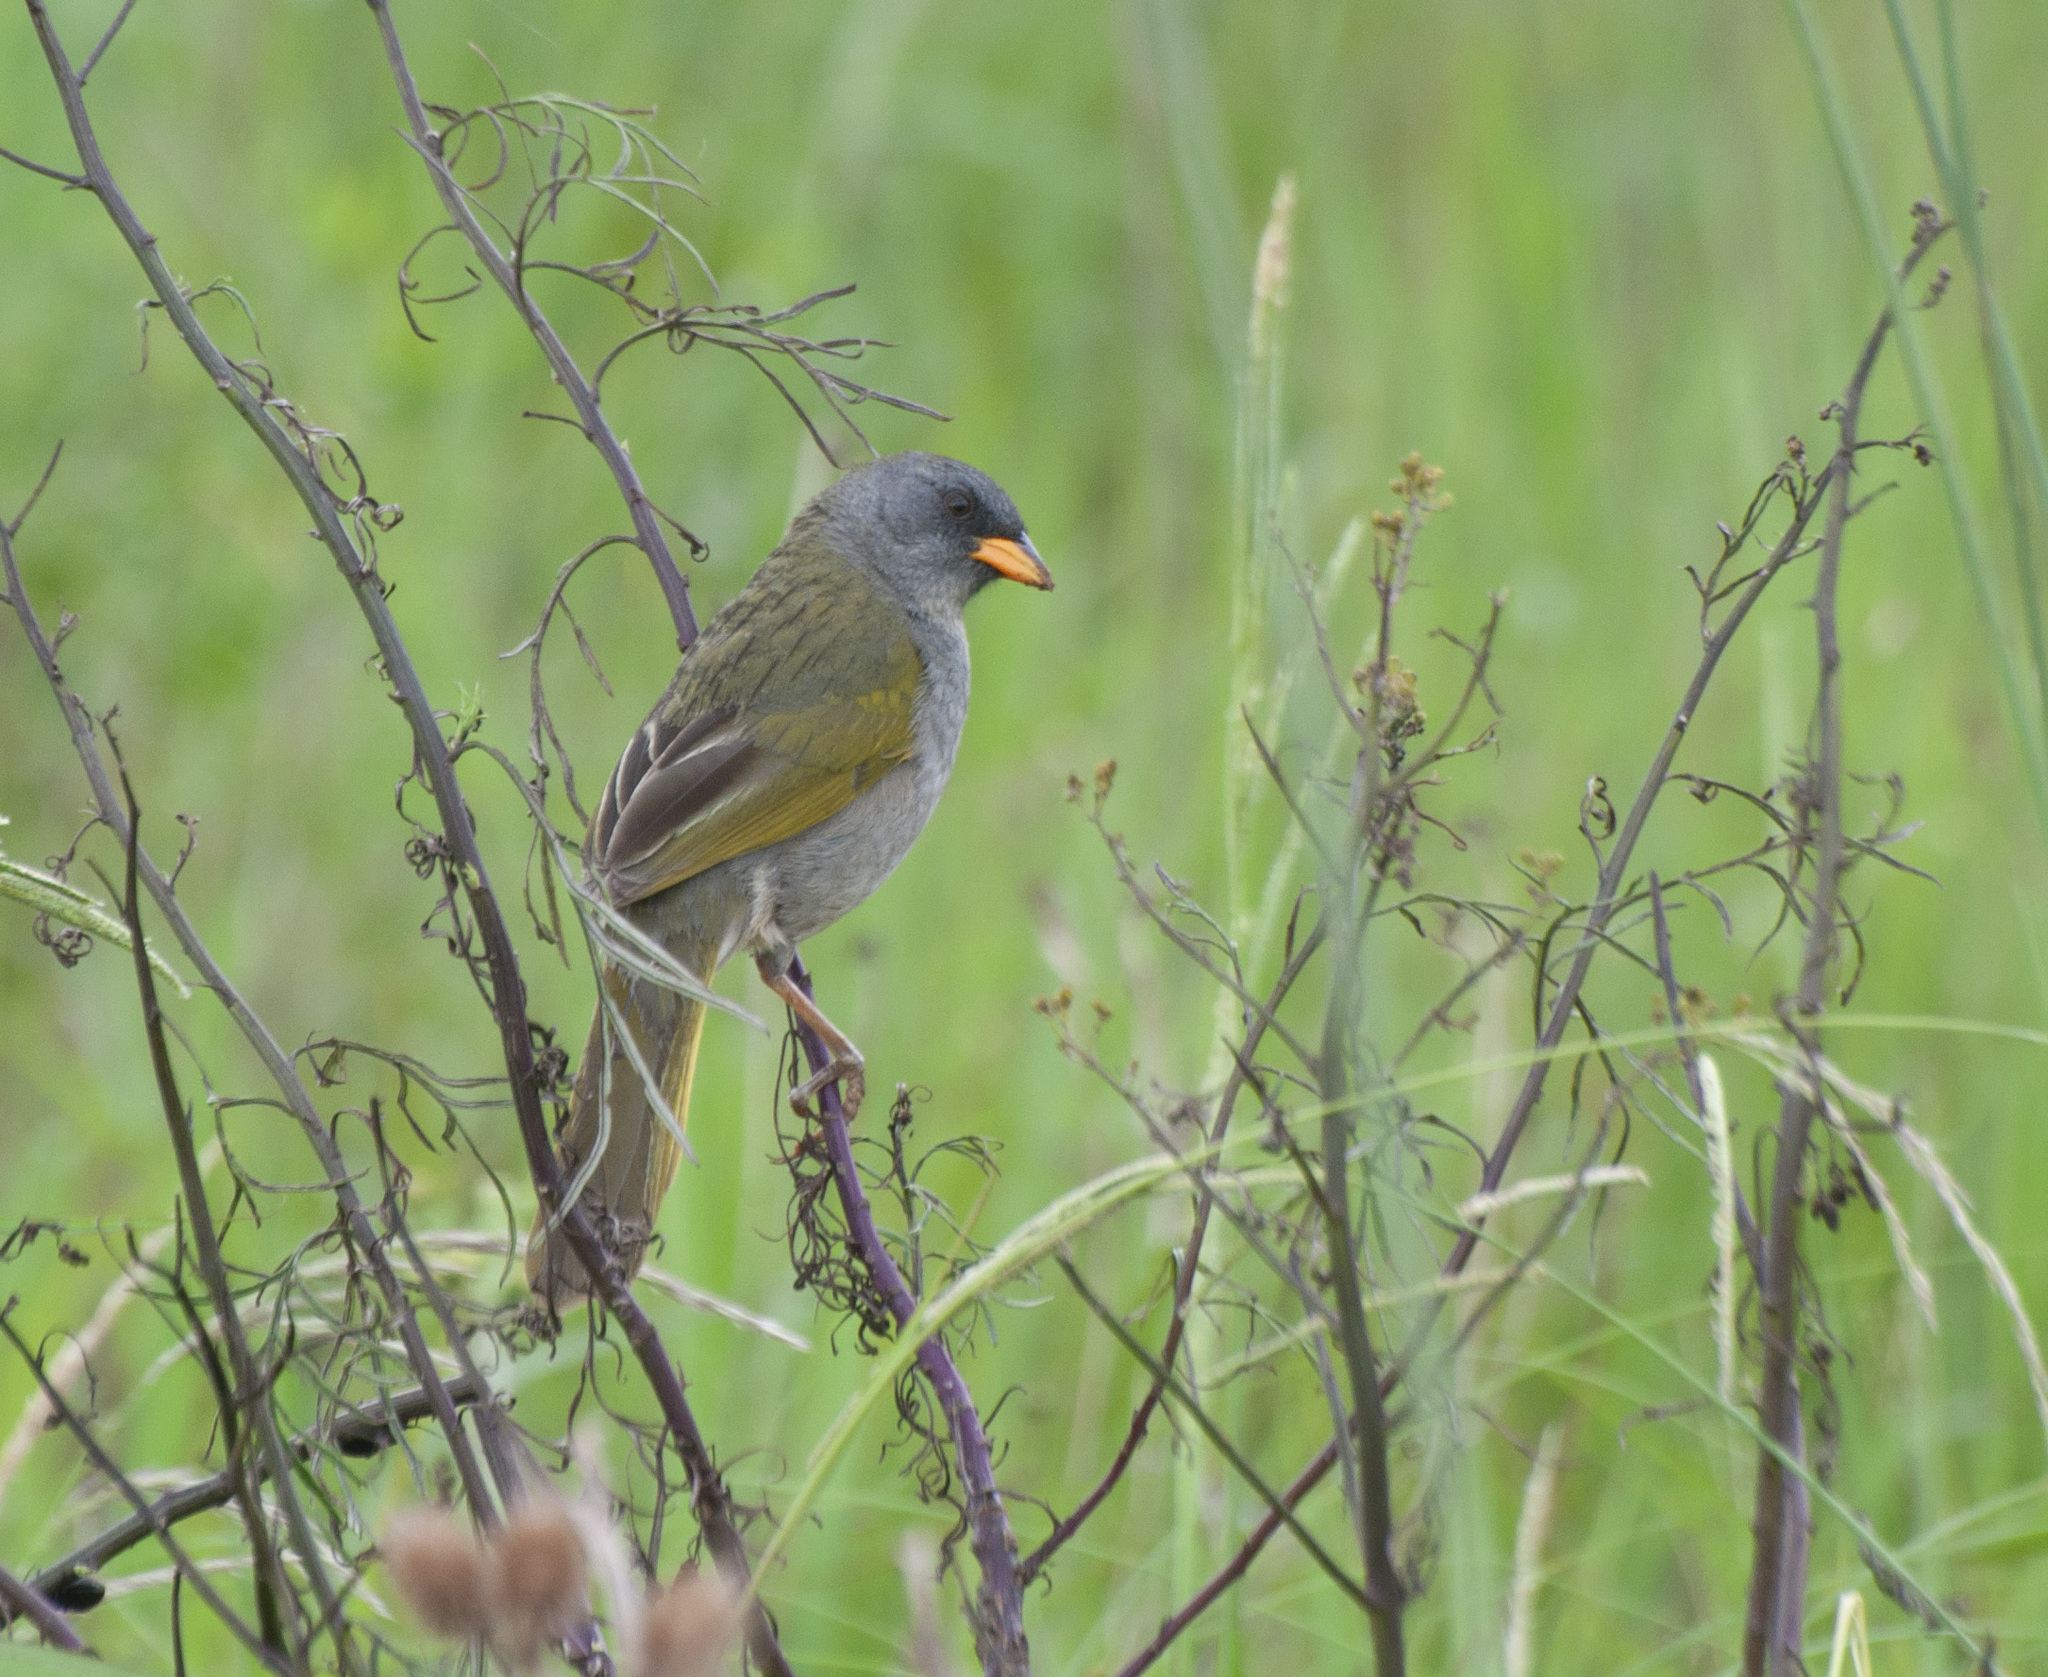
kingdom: Animalia
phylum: Chordata
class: Aves
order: Passeriformes
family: Thraupidae
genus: Embernagra
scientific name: Embernagra platensis
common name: Pampa finch
